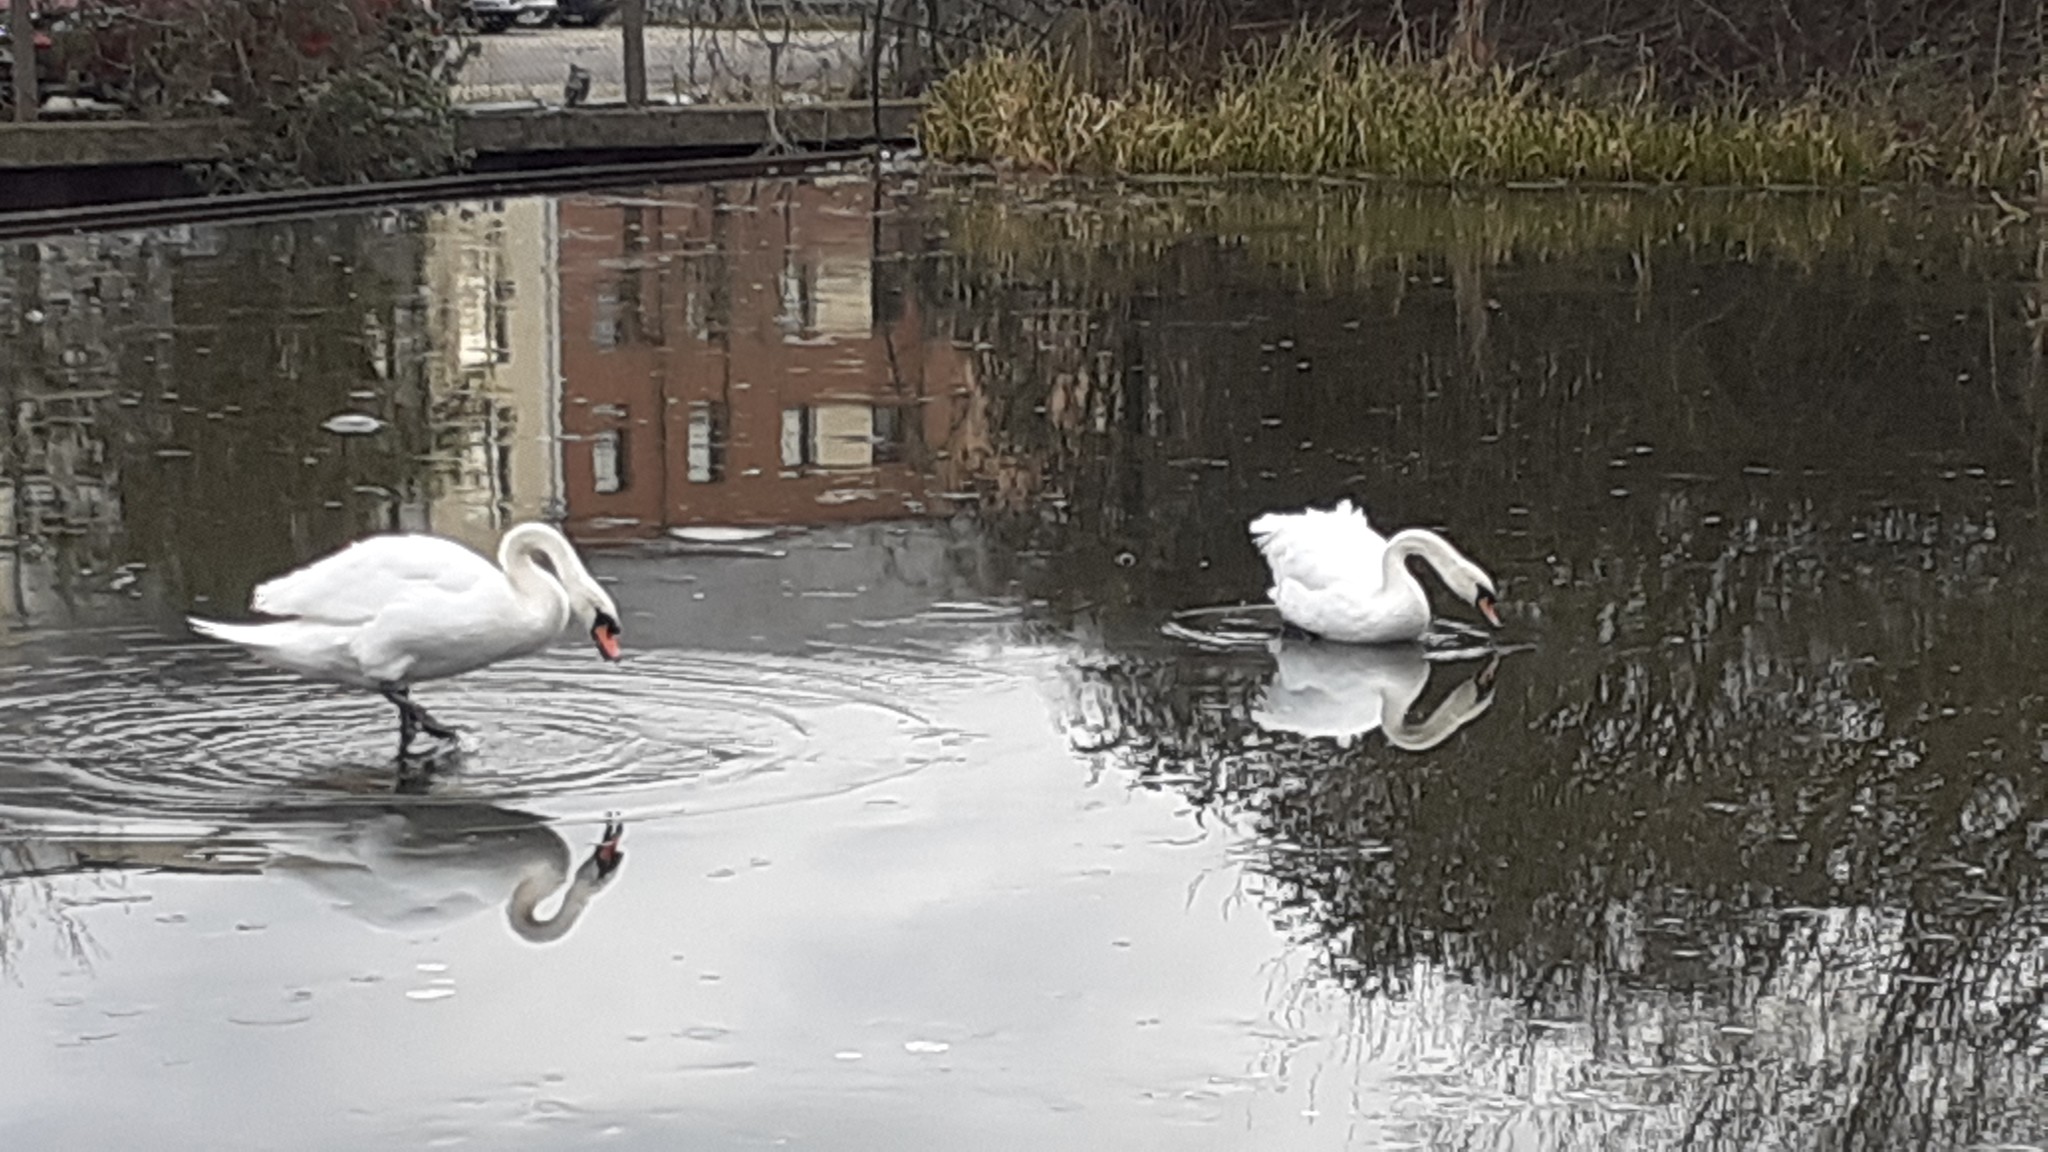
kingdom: Animalia
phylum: Chordata
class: Aves
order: Anseriformes
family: Anatidae
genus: Cygnus
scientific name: Cygnus olor
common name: Mute swan
